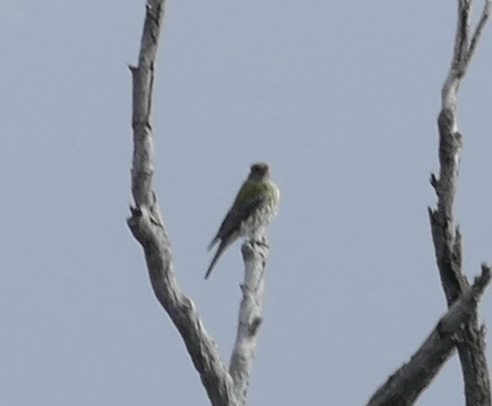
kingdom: Animalia
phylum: Chordata
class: Aves
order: Passeriformes
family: Oriolidae
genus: Oriolus
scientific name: Oriolus sagittatus
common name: Olive-backed oriole
